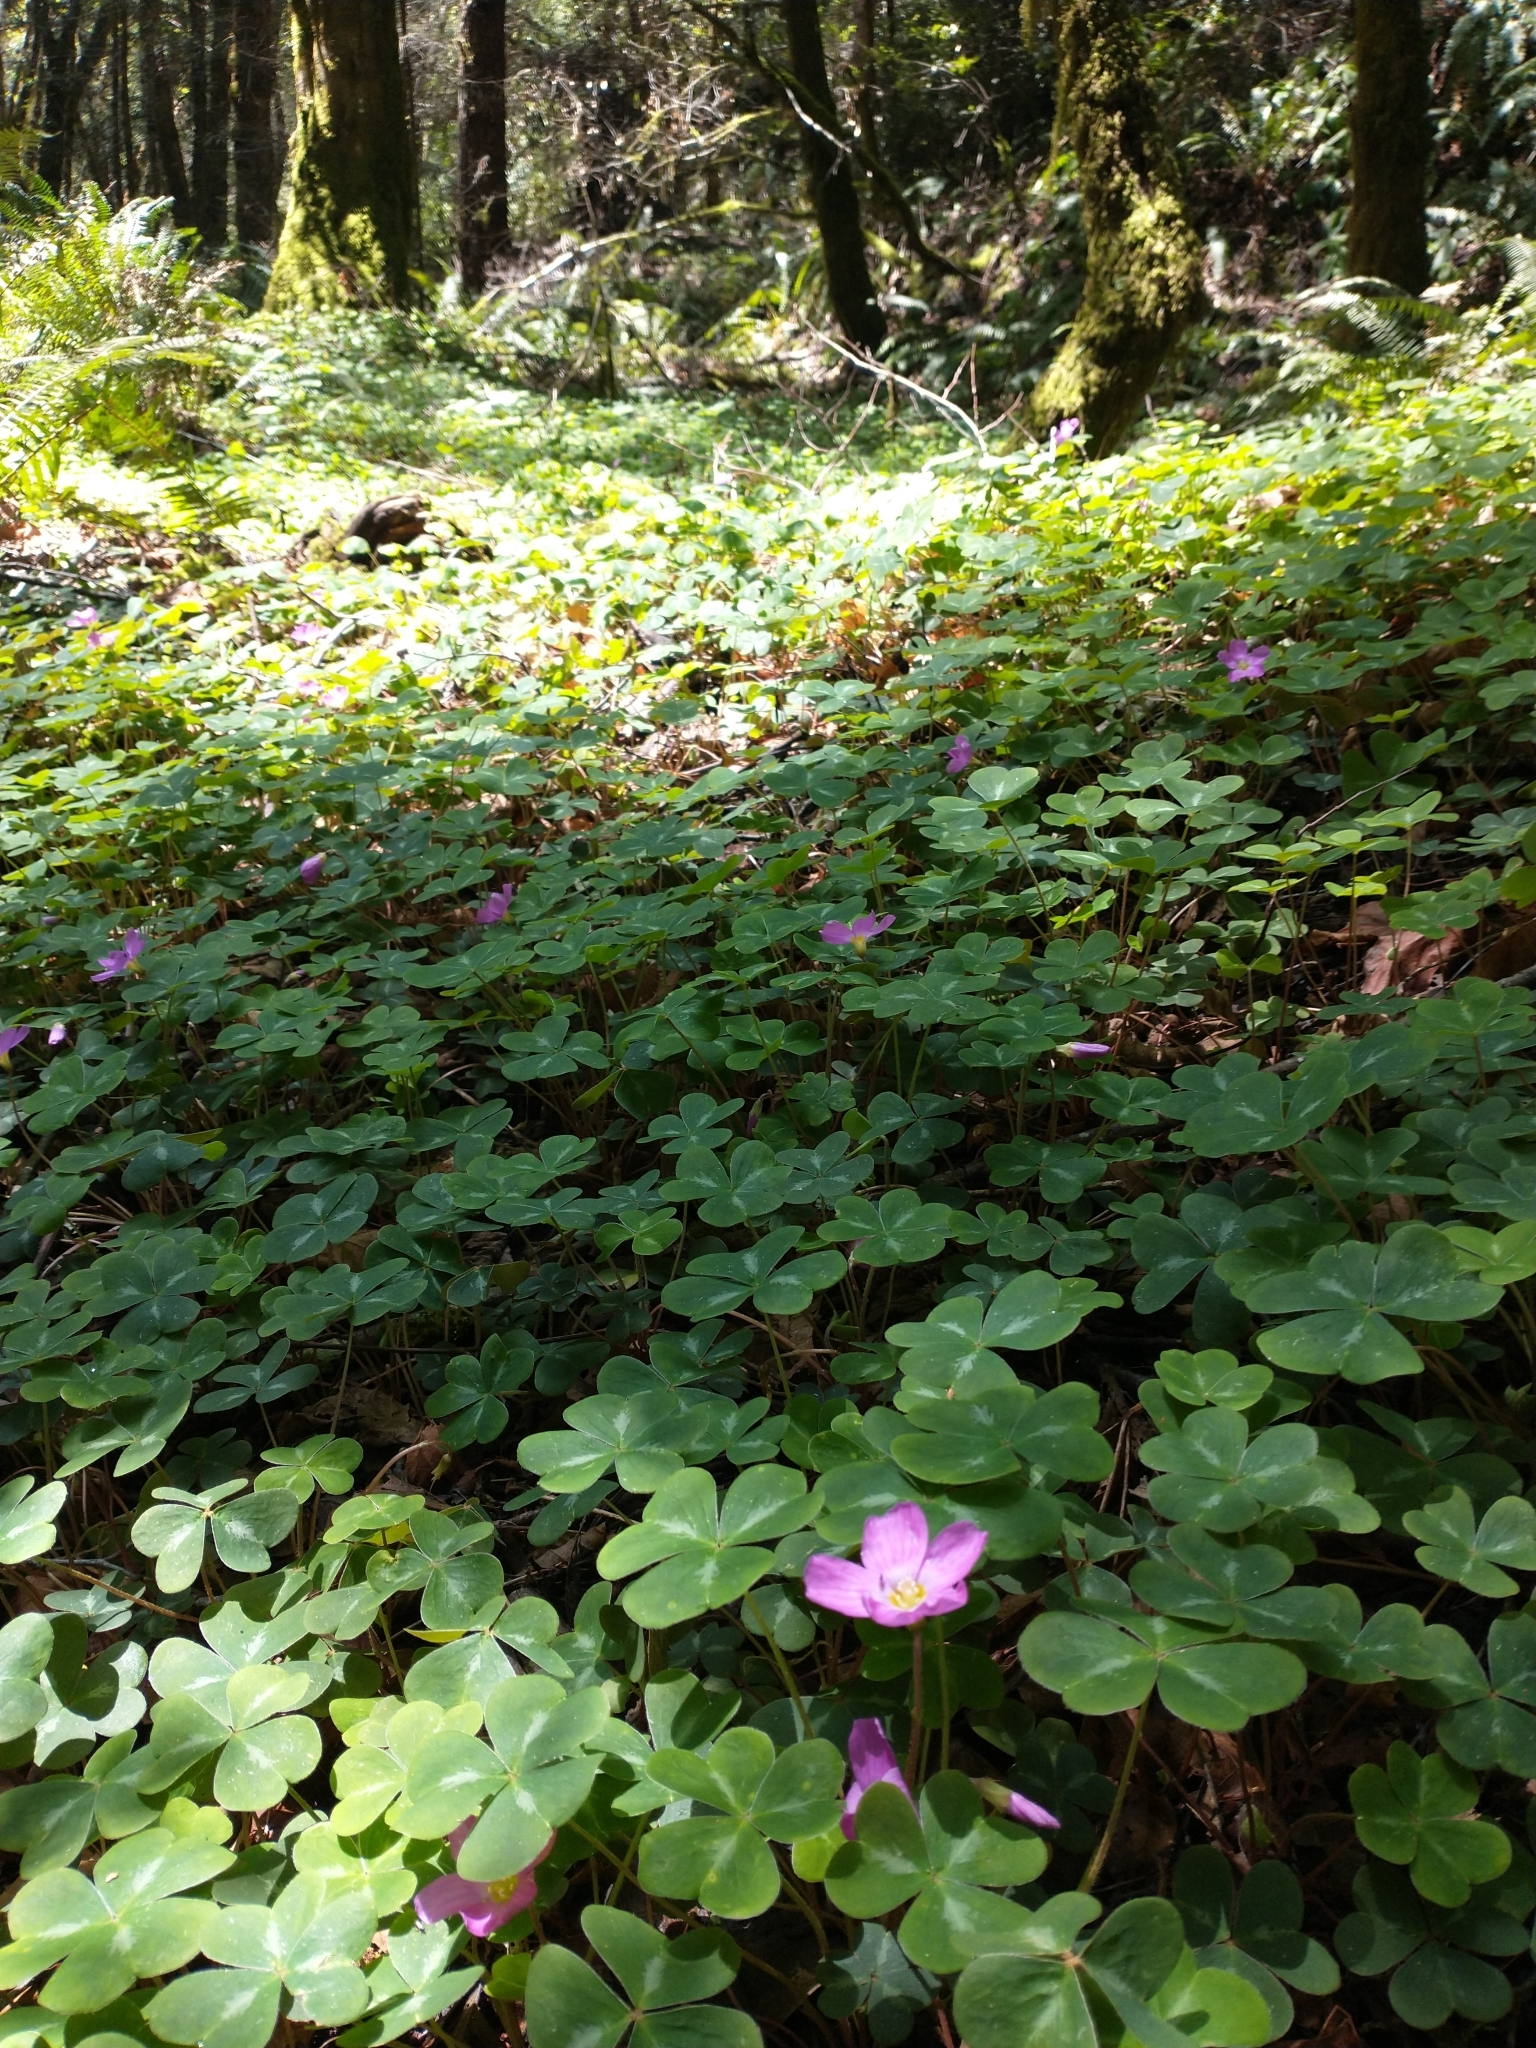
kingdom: Plantae
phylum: Tracheophyta
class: Magnoliopsida
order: Oxalidales
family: Oxalidaceae
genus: Oxalis
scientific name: Oxalis oregana
